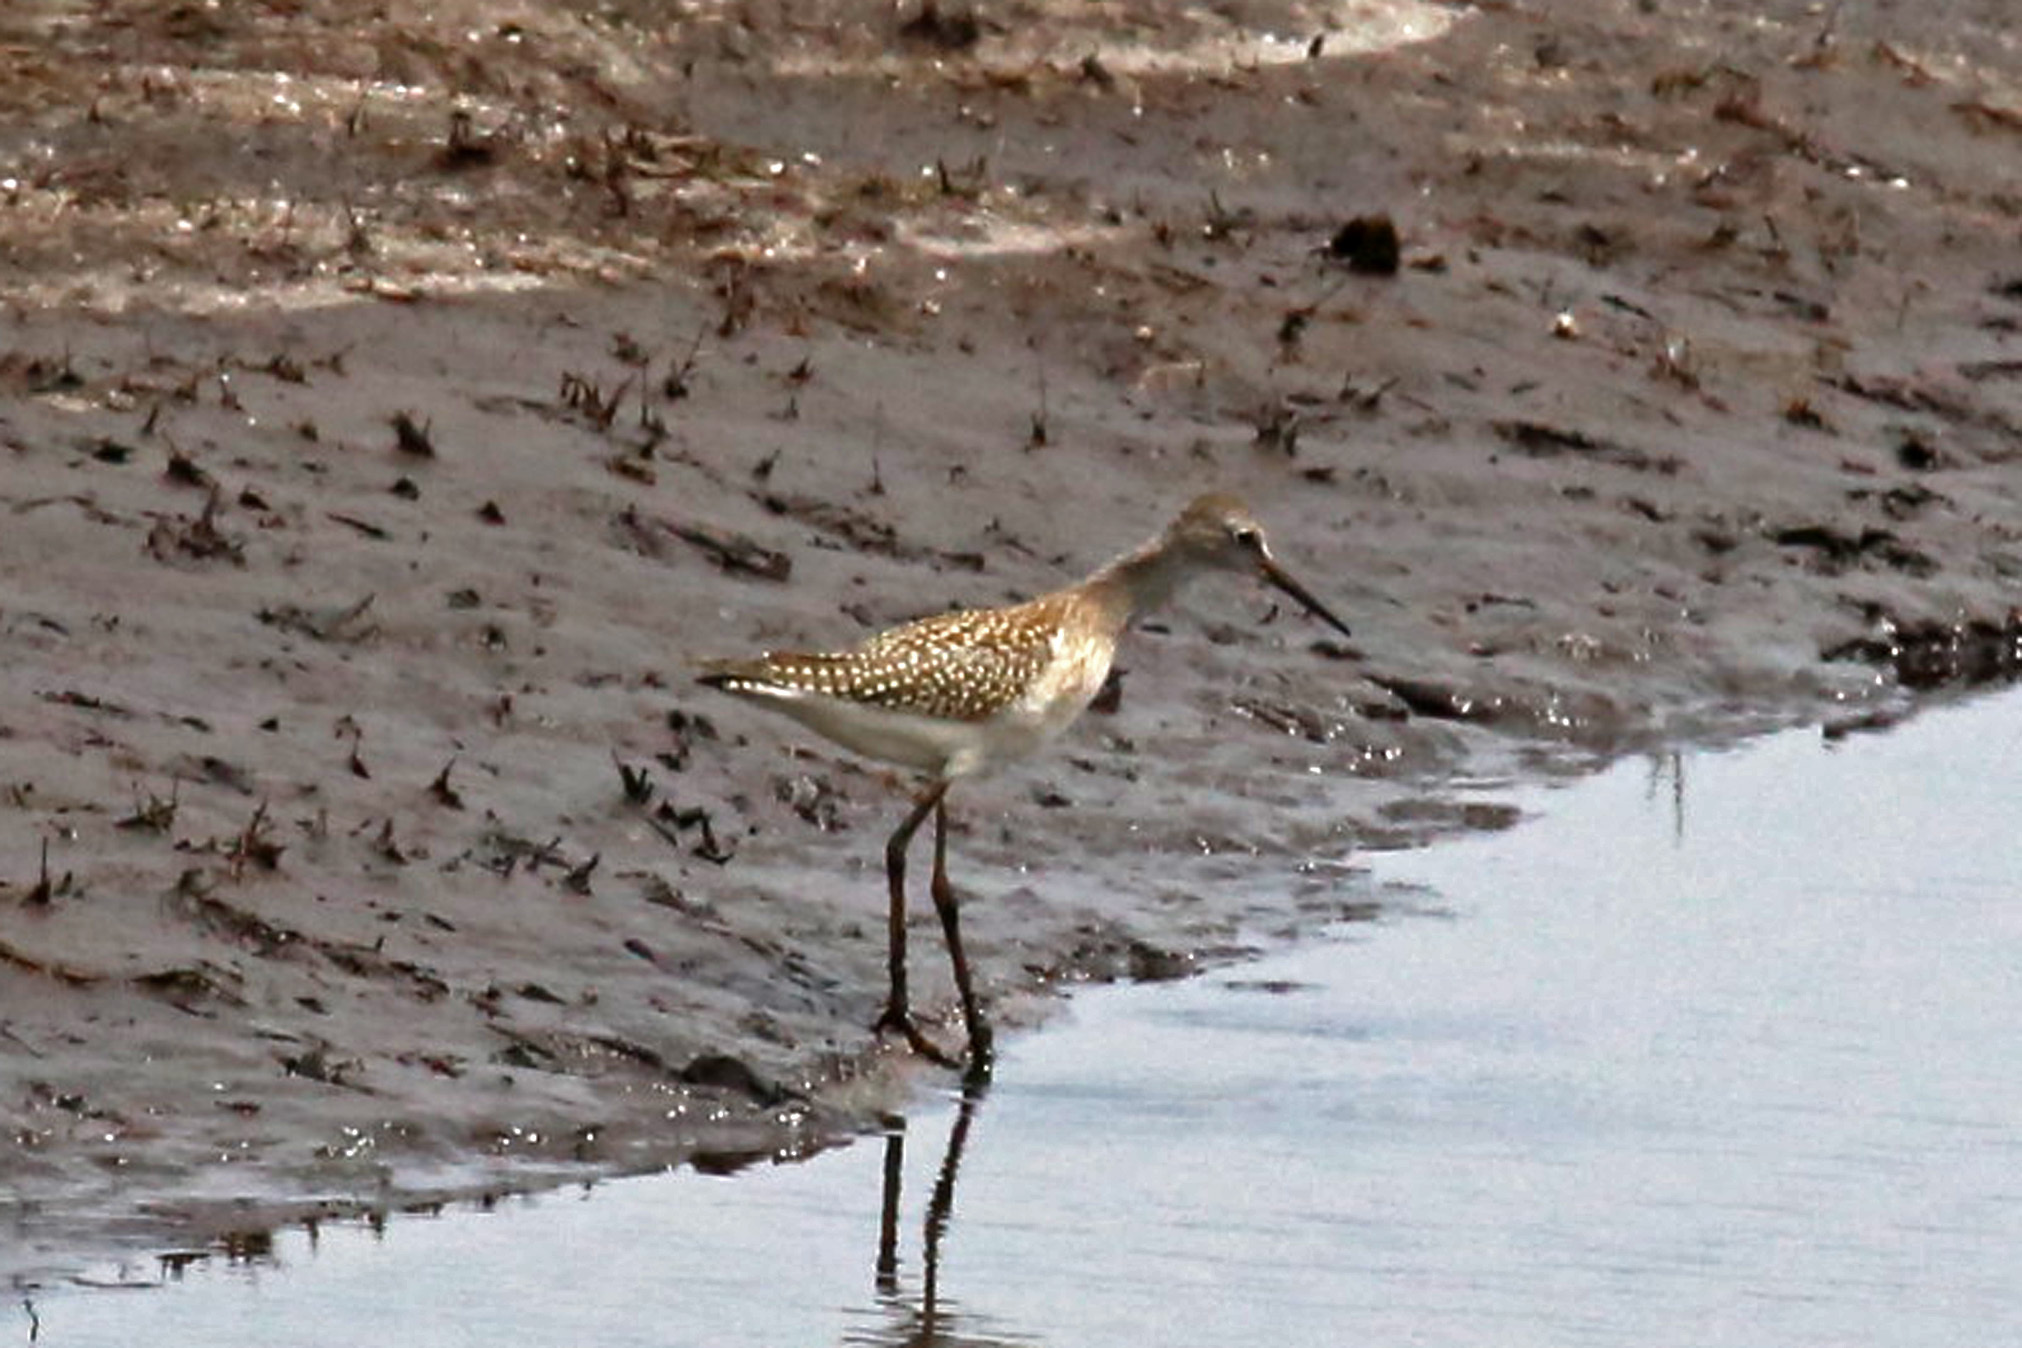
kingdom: Animalia
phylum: Chordata
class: Aves
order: Charadriiformes
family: Scolopacidae
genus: Tringa
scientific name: Tringa flavipes
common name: Lesser yellowlegs
